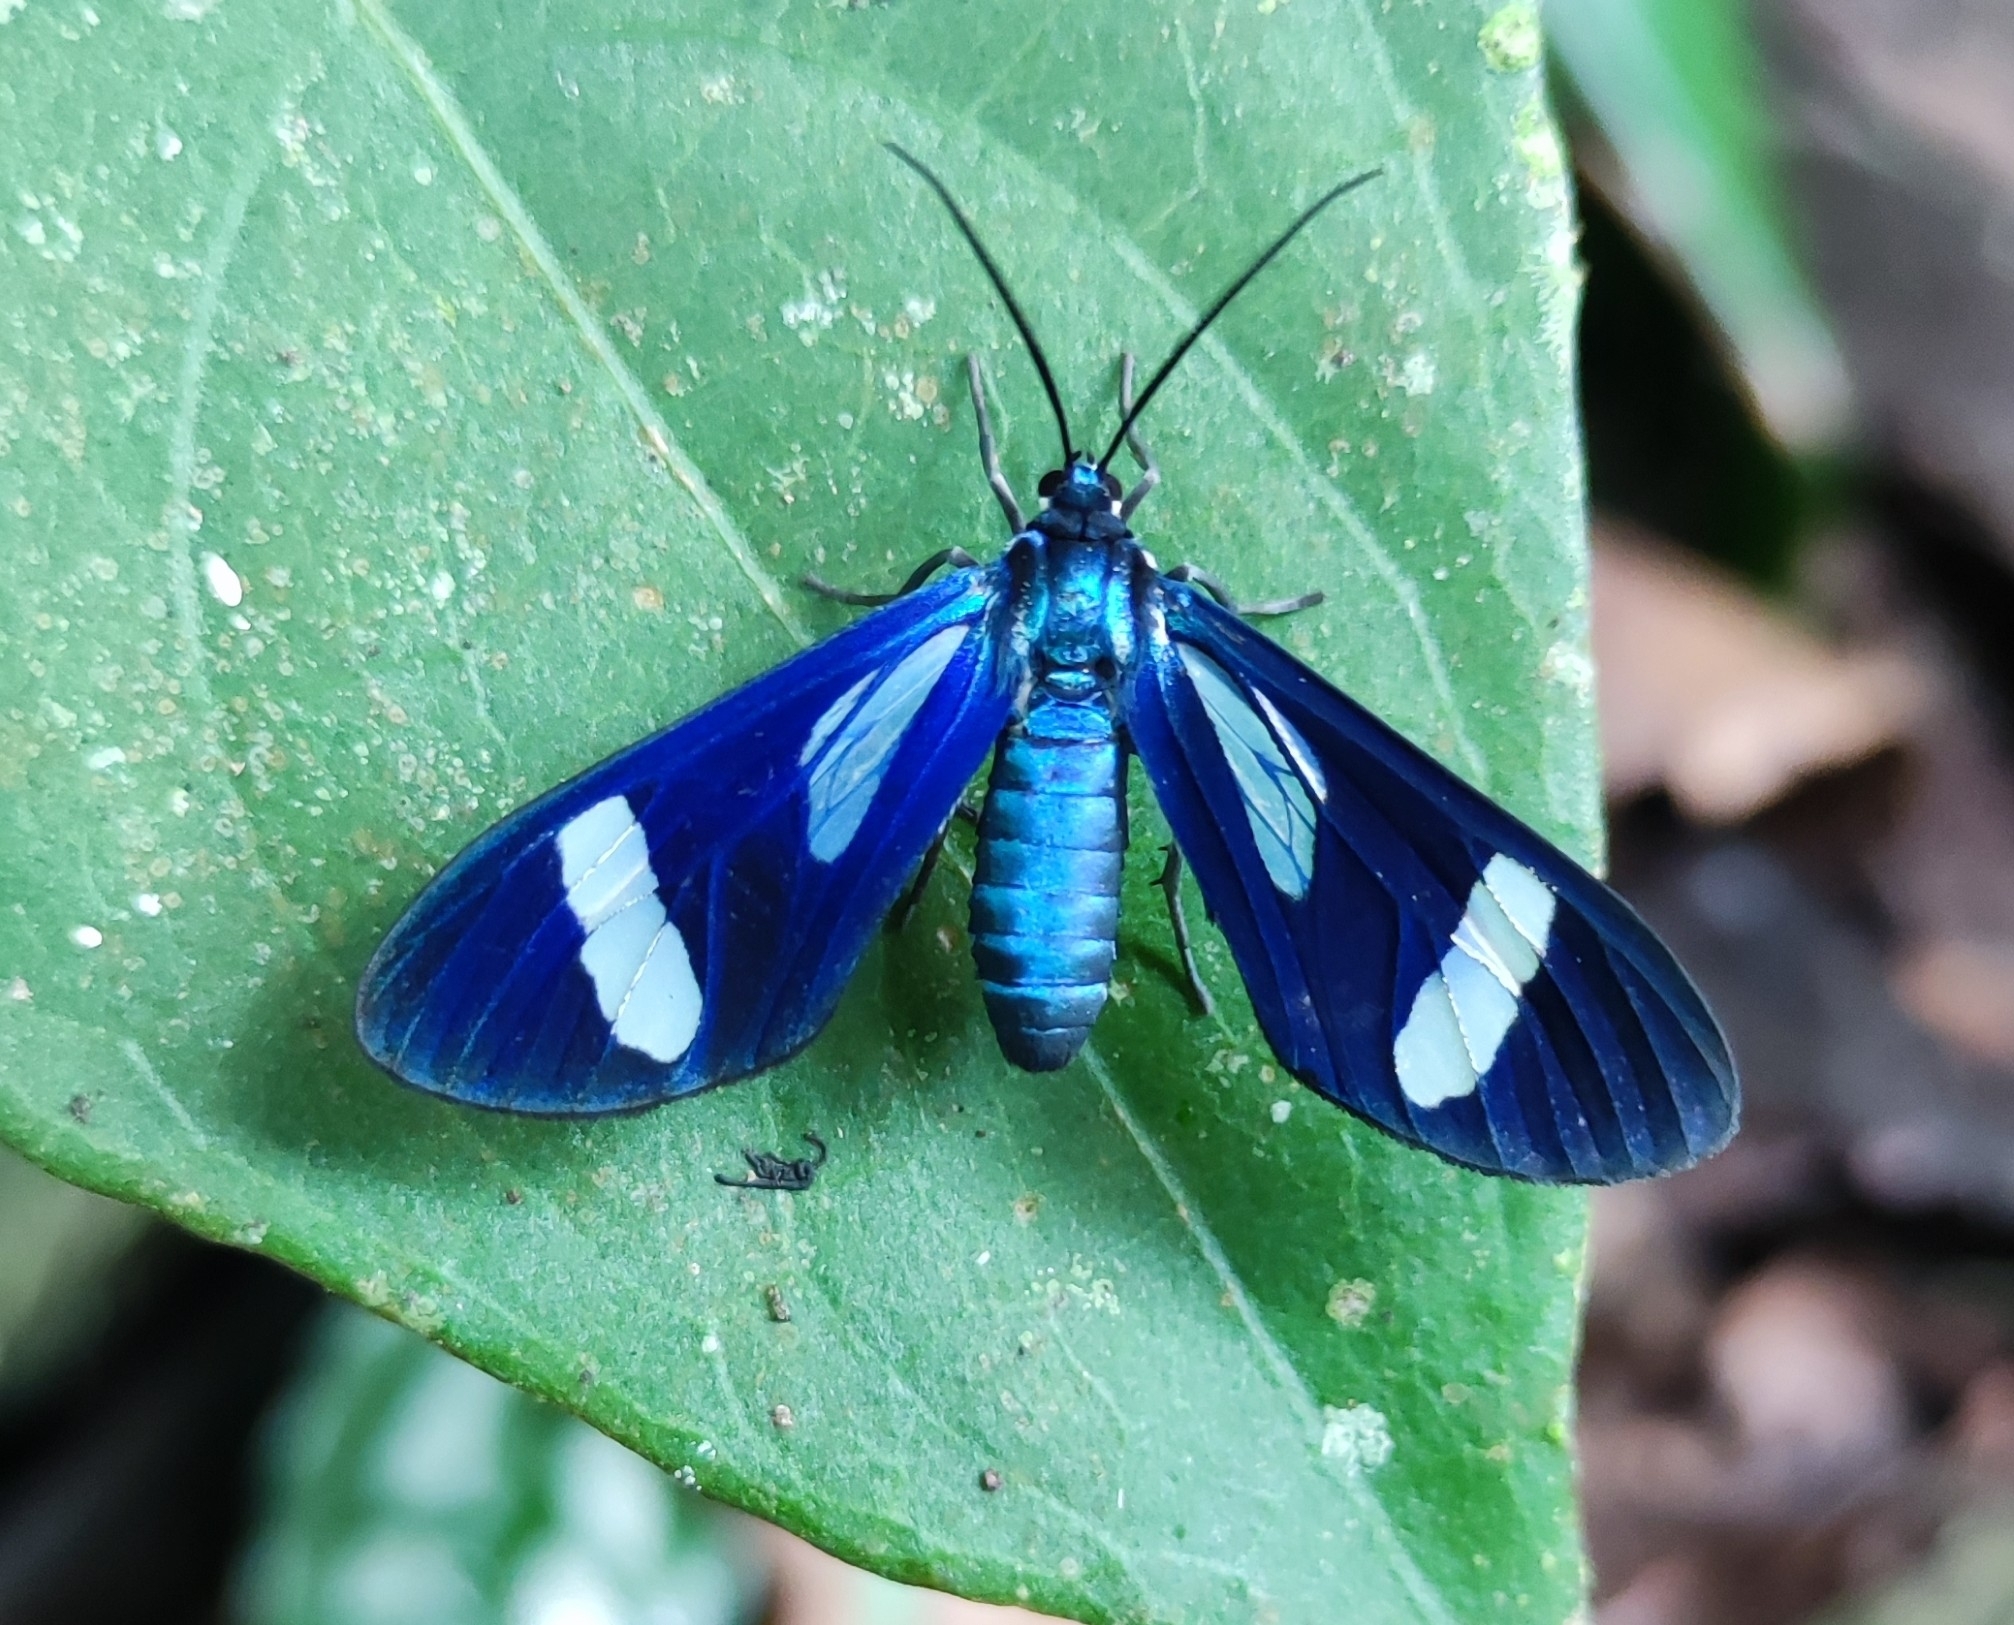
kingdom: Animalia
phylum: Arthropoda
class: Insecta
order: Lepidoptera
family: Erebidae
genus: Cacostatia
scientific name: Cacostatia saphira
